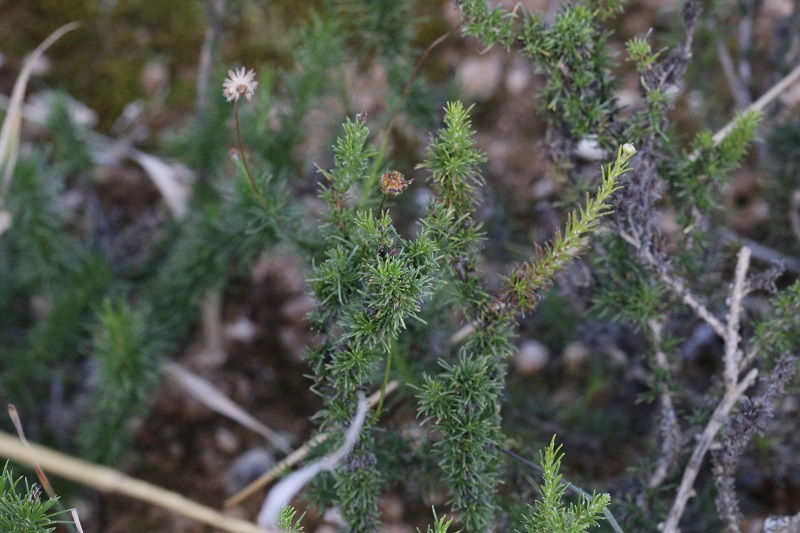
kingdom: Plantae
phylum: Tracheophyta
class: Magnoliopsida
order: Asterales
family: Asteraceae
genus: Felicia
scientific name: Felicia muricata
